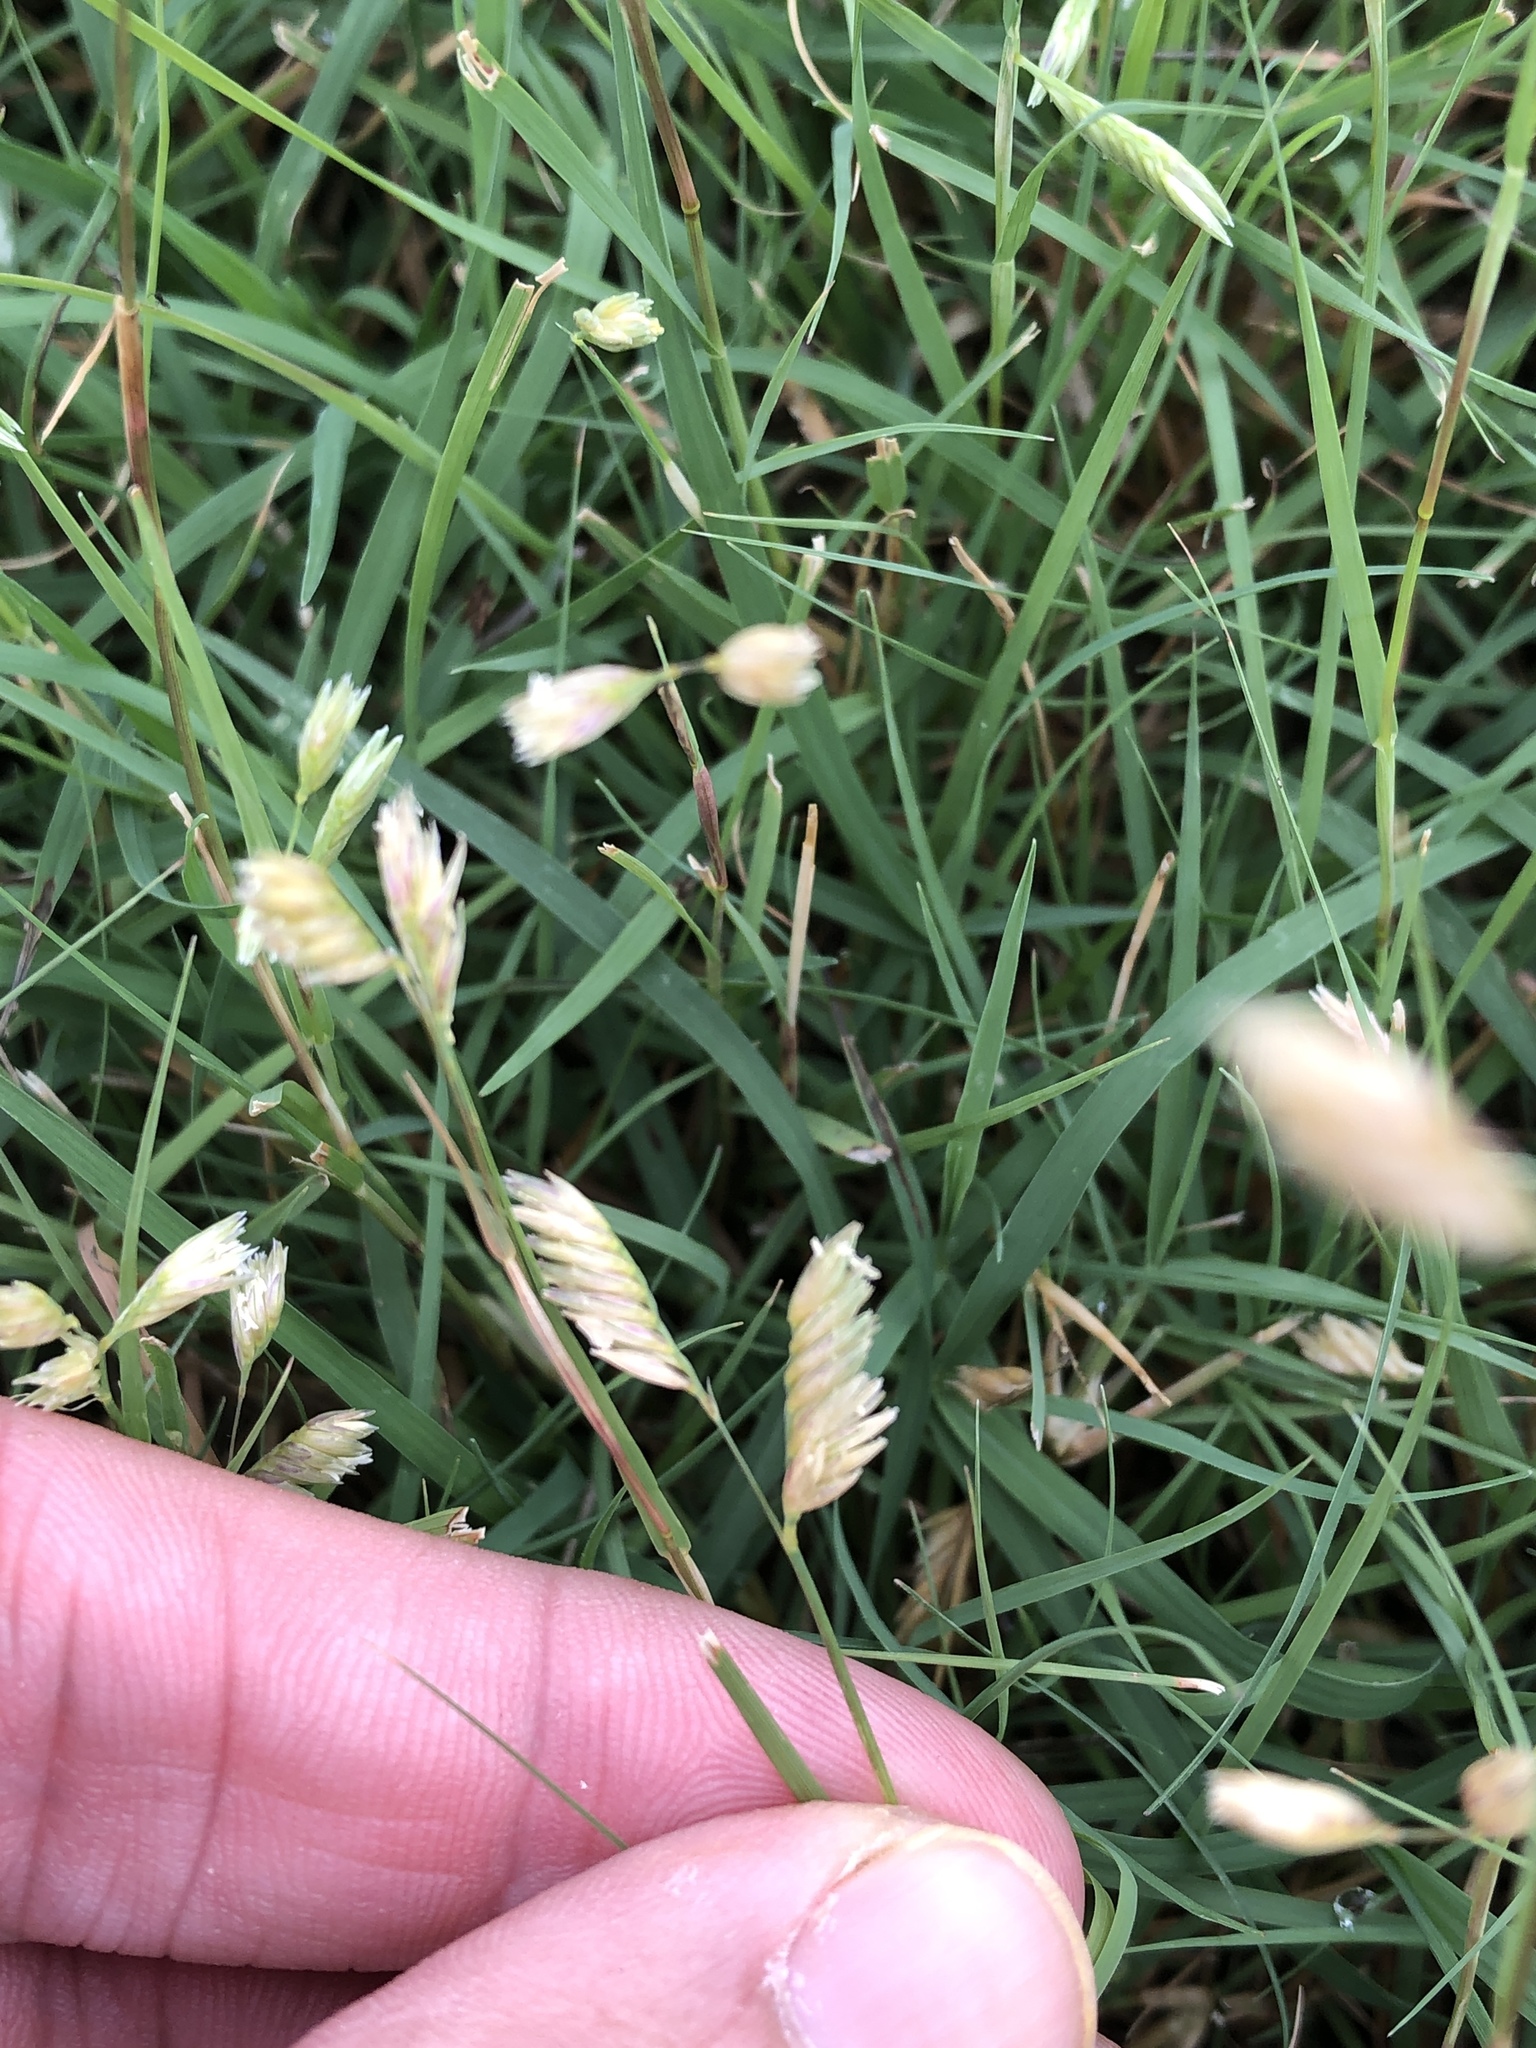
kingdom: Plantae
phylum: Tracheophyta
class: Liliopsida
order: Poales
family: Poaceae
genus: Bouteloua
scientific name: Bouteloua dactyloides
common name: Buffalo grass
